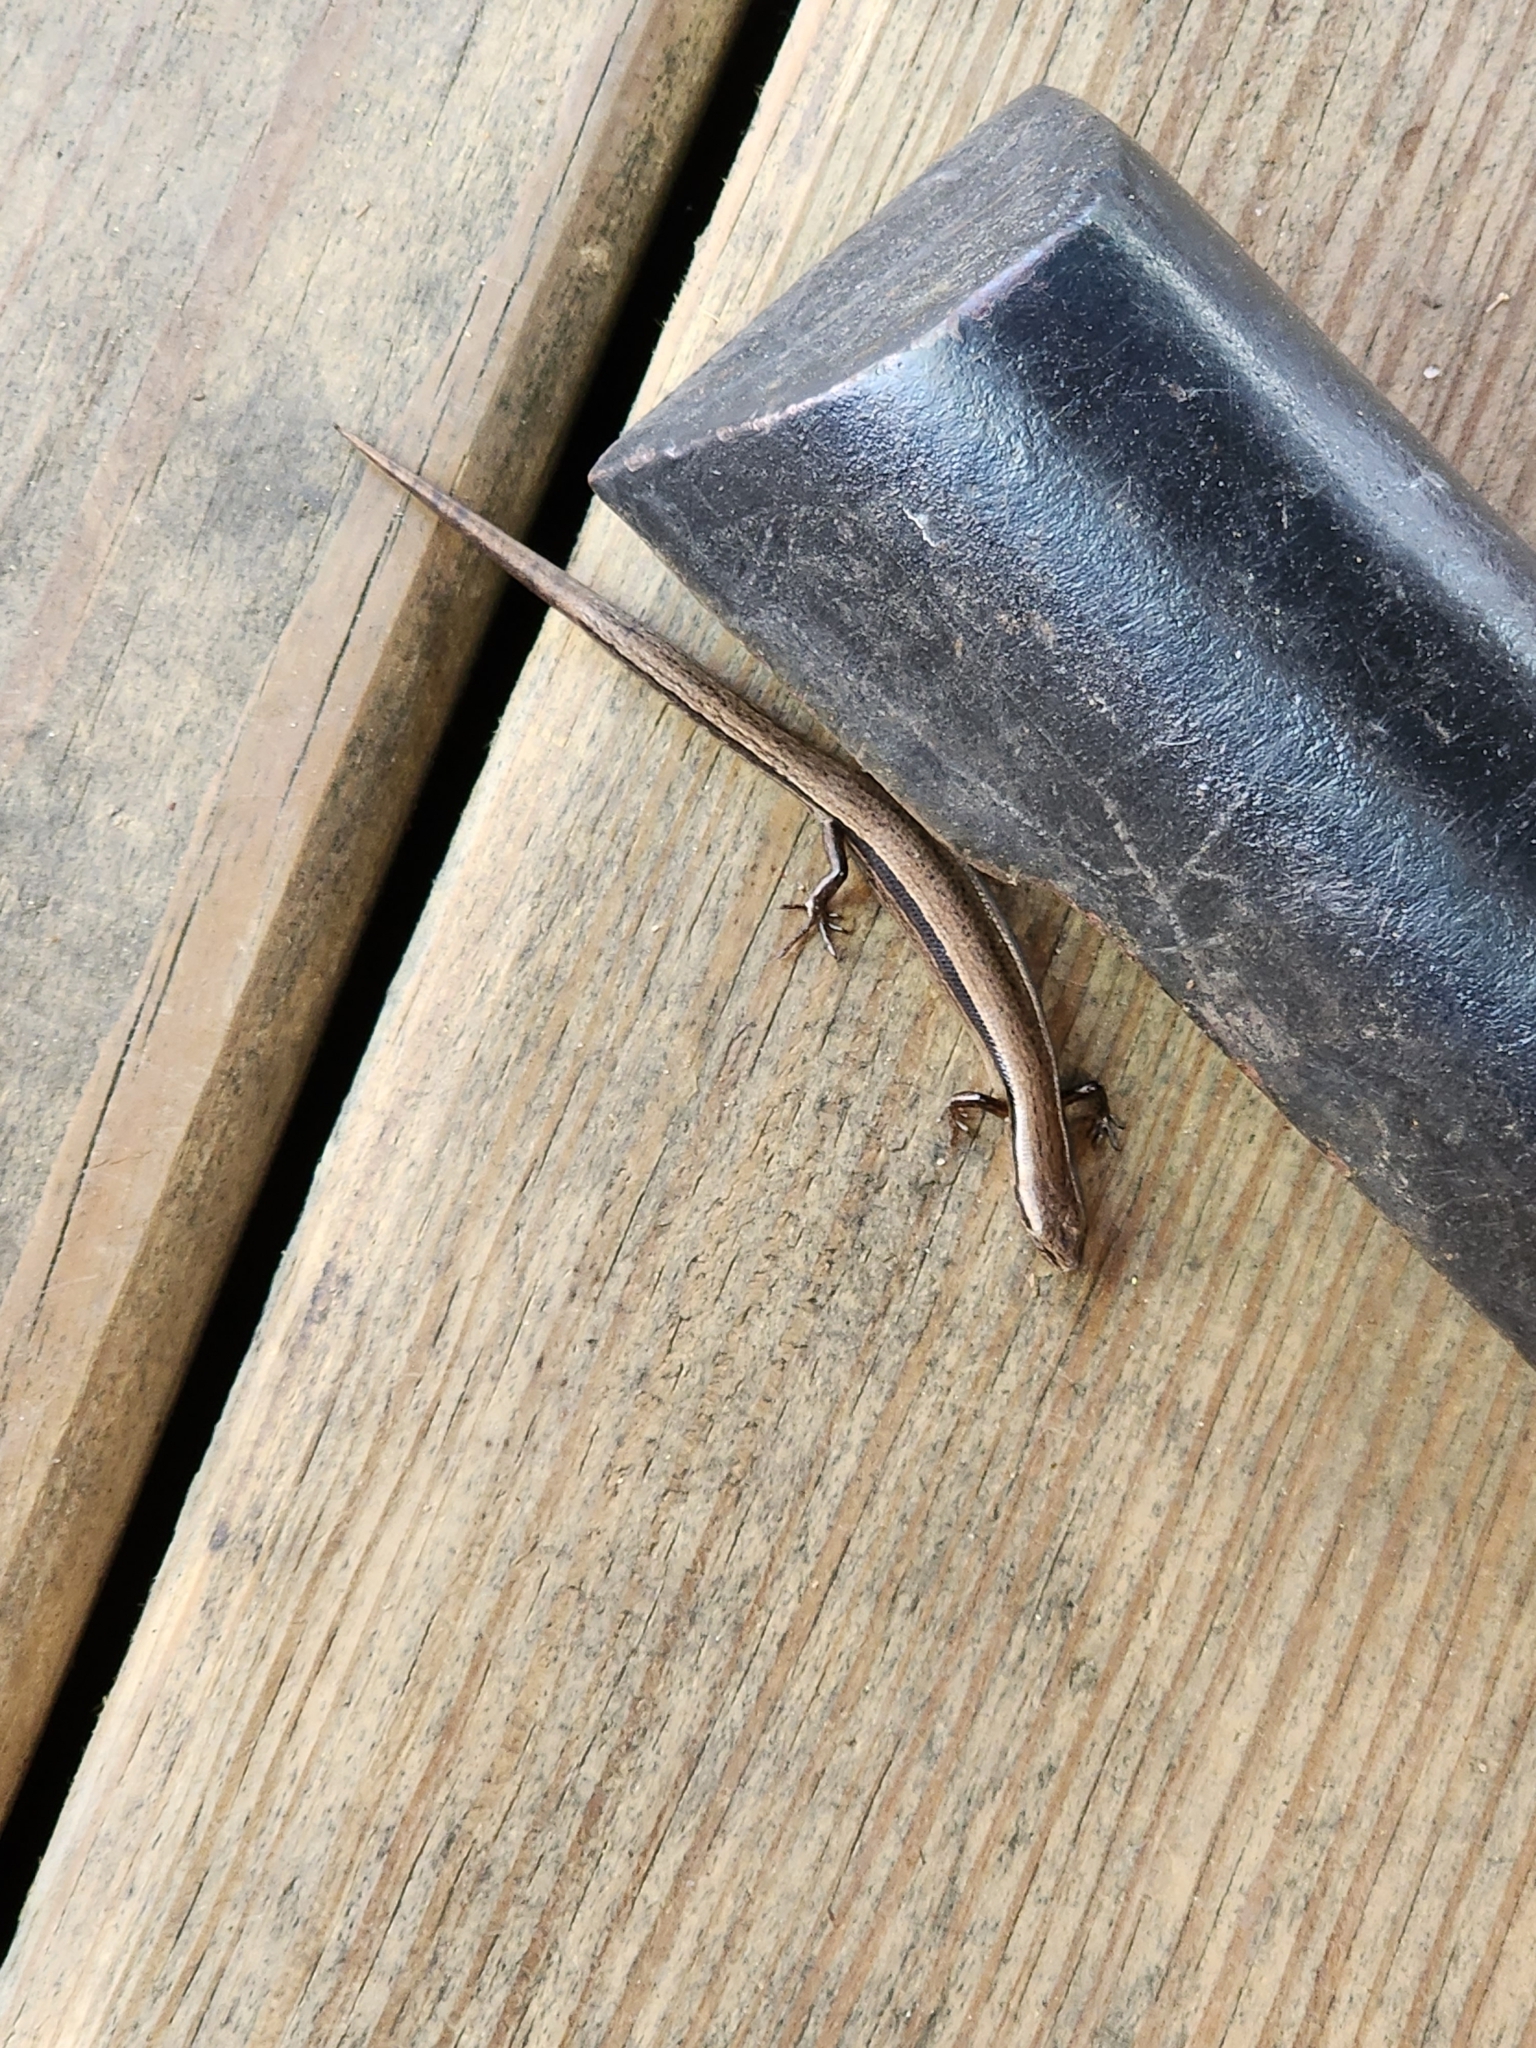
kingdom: Animalia
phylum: Chordata
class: Squamata
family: Scincidae
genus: Scincella
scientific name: Scincella lateralis
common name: Ground skink
